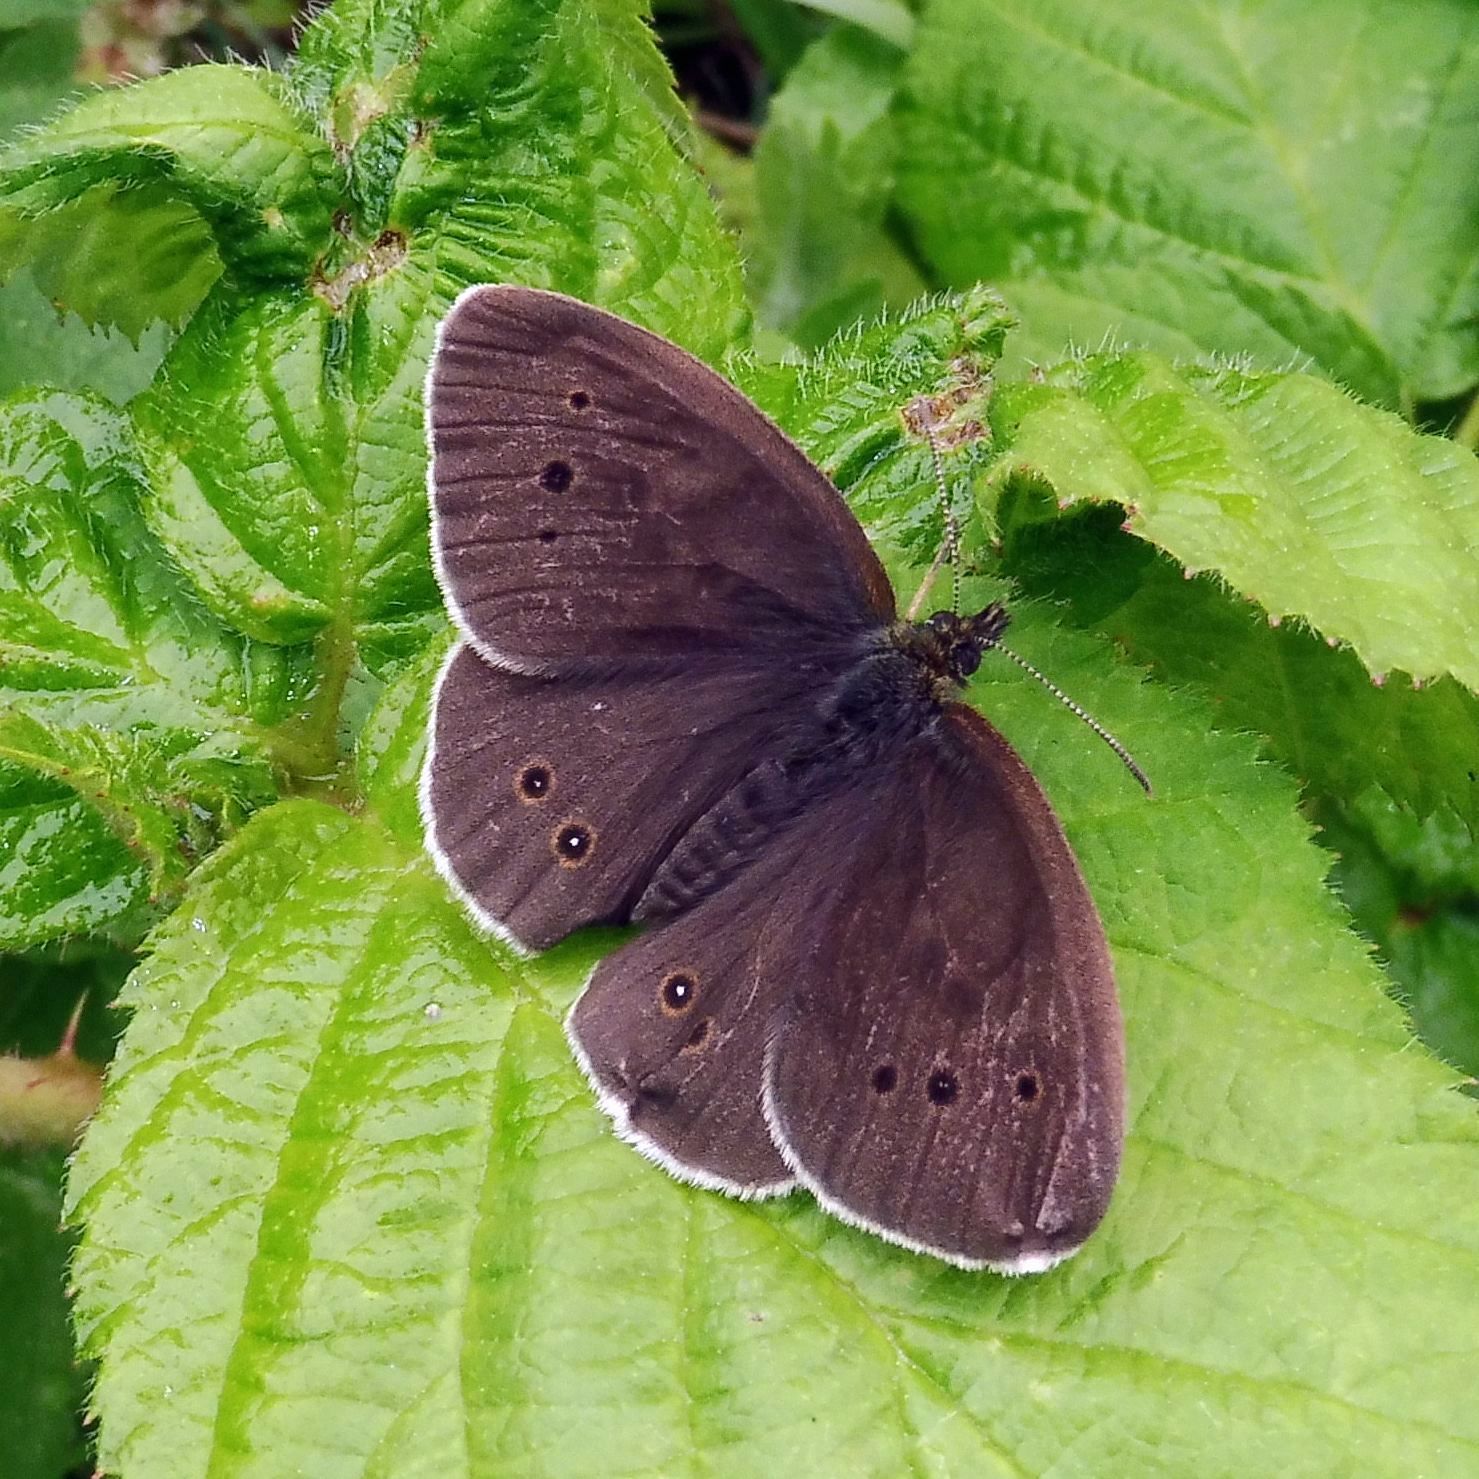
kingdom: Animalia
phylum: Arthropoda
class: Insecta
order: Lepidoptera
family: Nymphalidae
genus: Aphantopus
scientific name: Aphantopus hyperantus
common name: Ringlet
